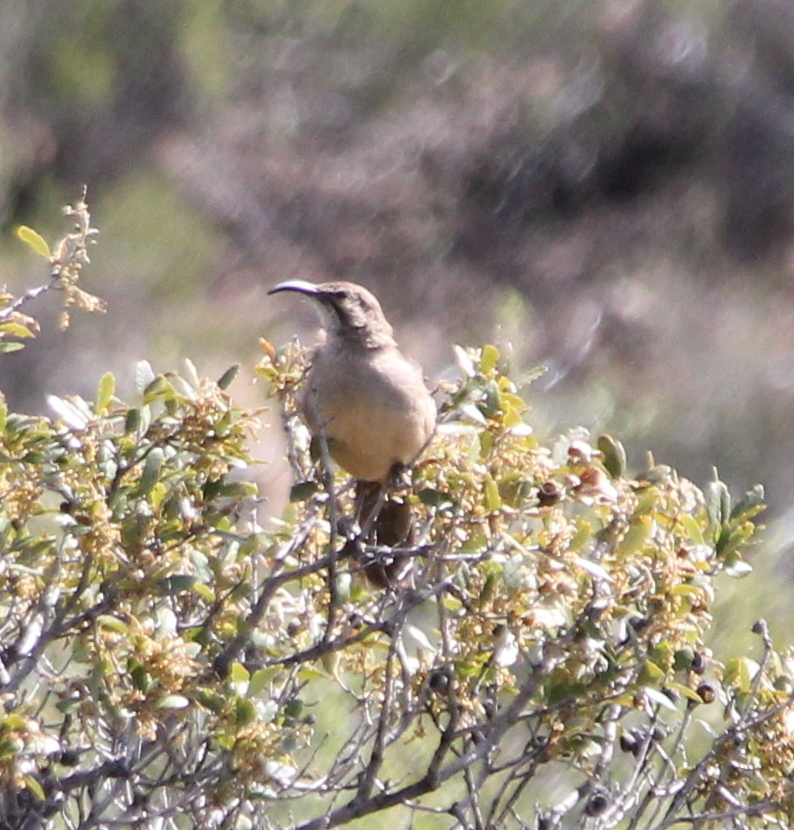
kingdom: Animalia
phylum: Chordata
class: Aves
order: Passeriformes
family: Mimidae
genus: Toxostoma
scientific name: Toxostoma redivivum
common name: California thrasher
